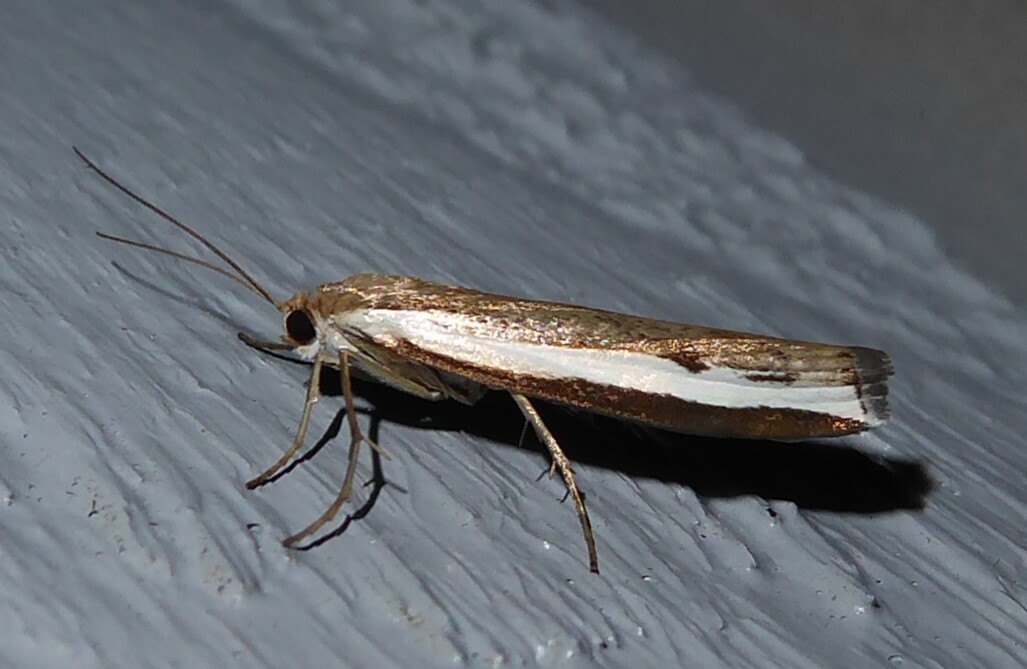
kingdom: Animalia
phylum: Arthropoda
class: Insecta
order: Lepidoptera
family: Crambidae
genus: Orocrambus
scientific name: Orocrambus flexuosellus
